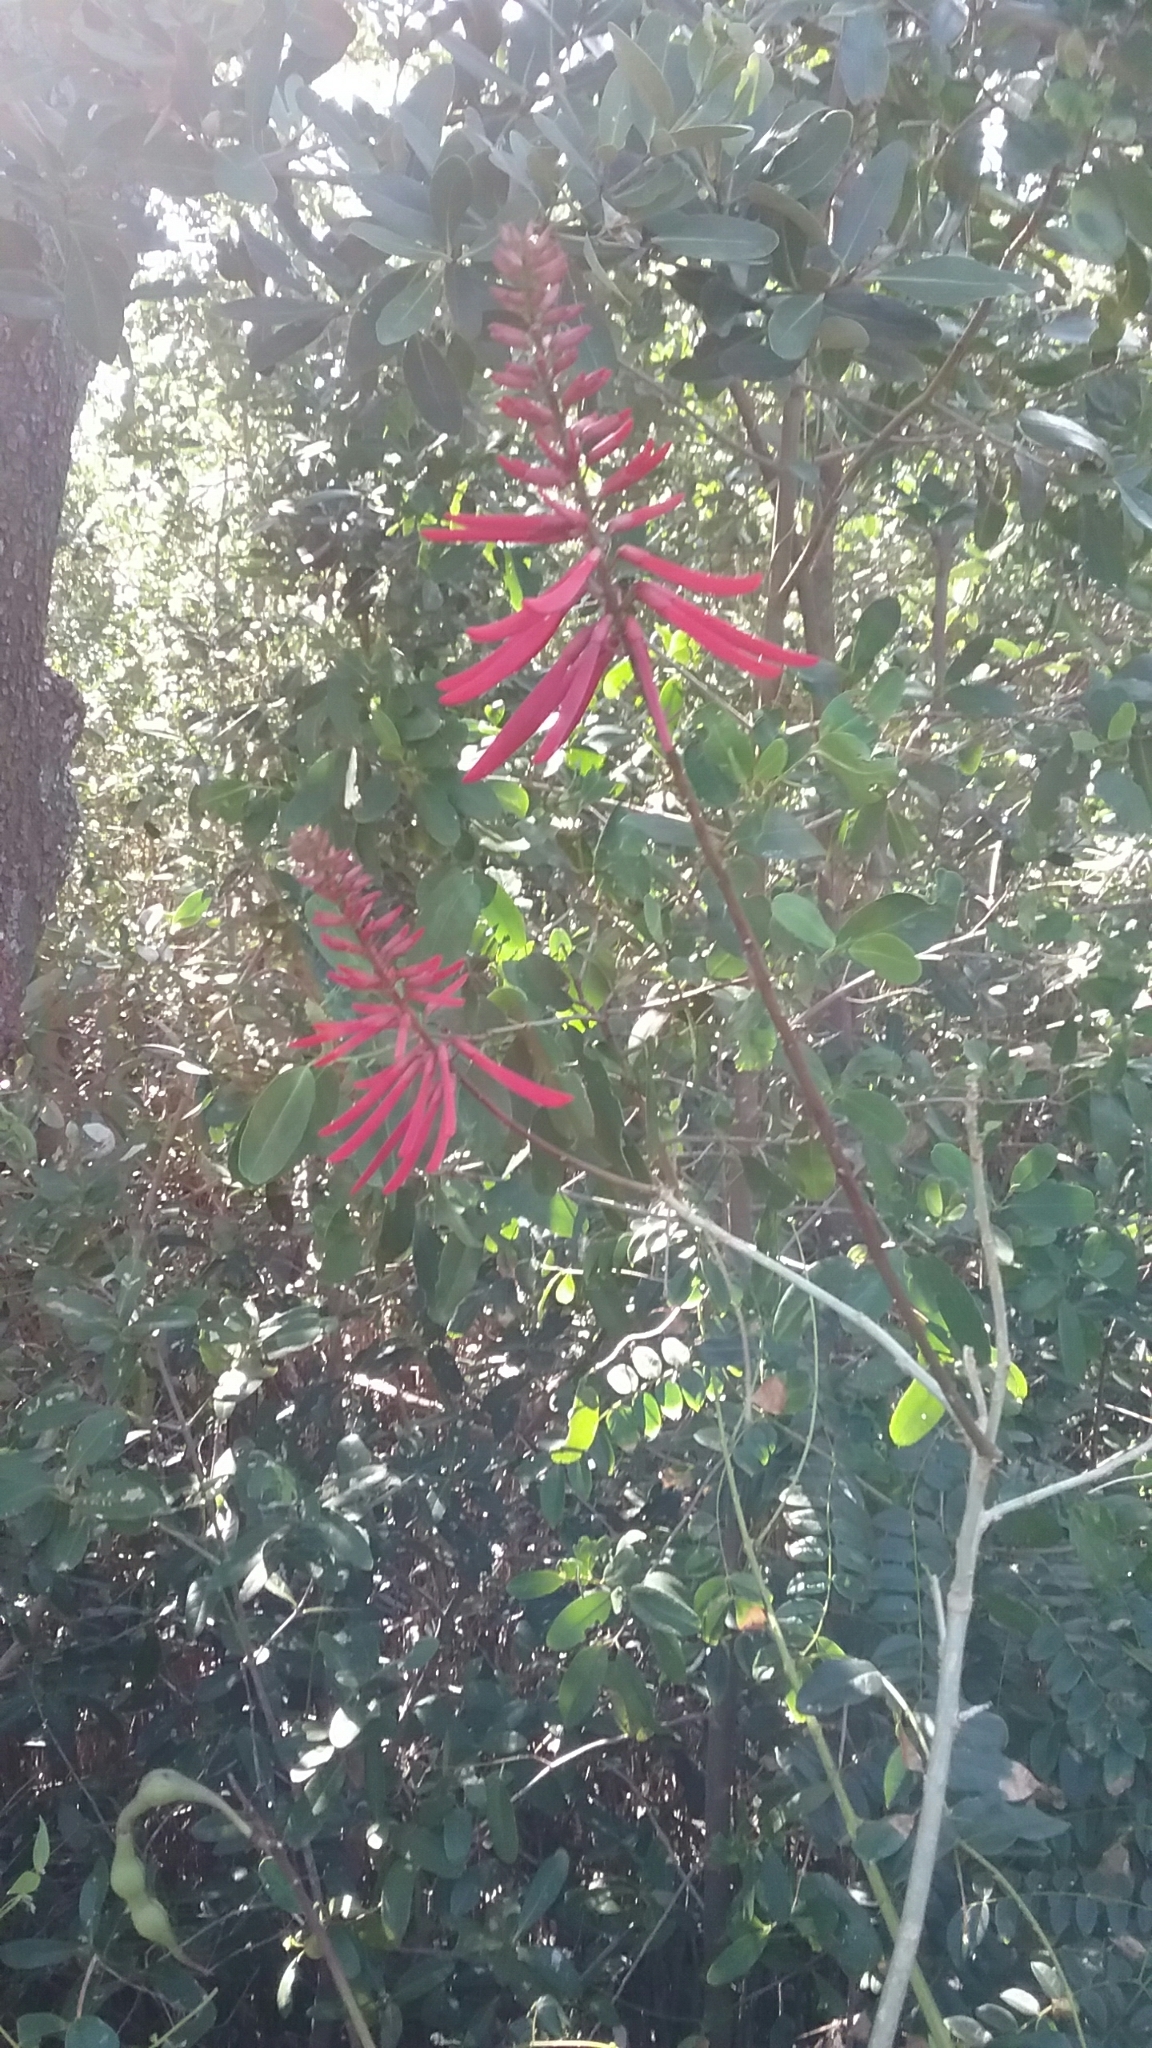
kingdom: Plantae
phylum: Tracheophyta
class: Magnoliopsida
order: Fabales
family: Fabaceae
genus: Erythrina
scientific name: Erythrina herbacea
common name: Coral-bean
